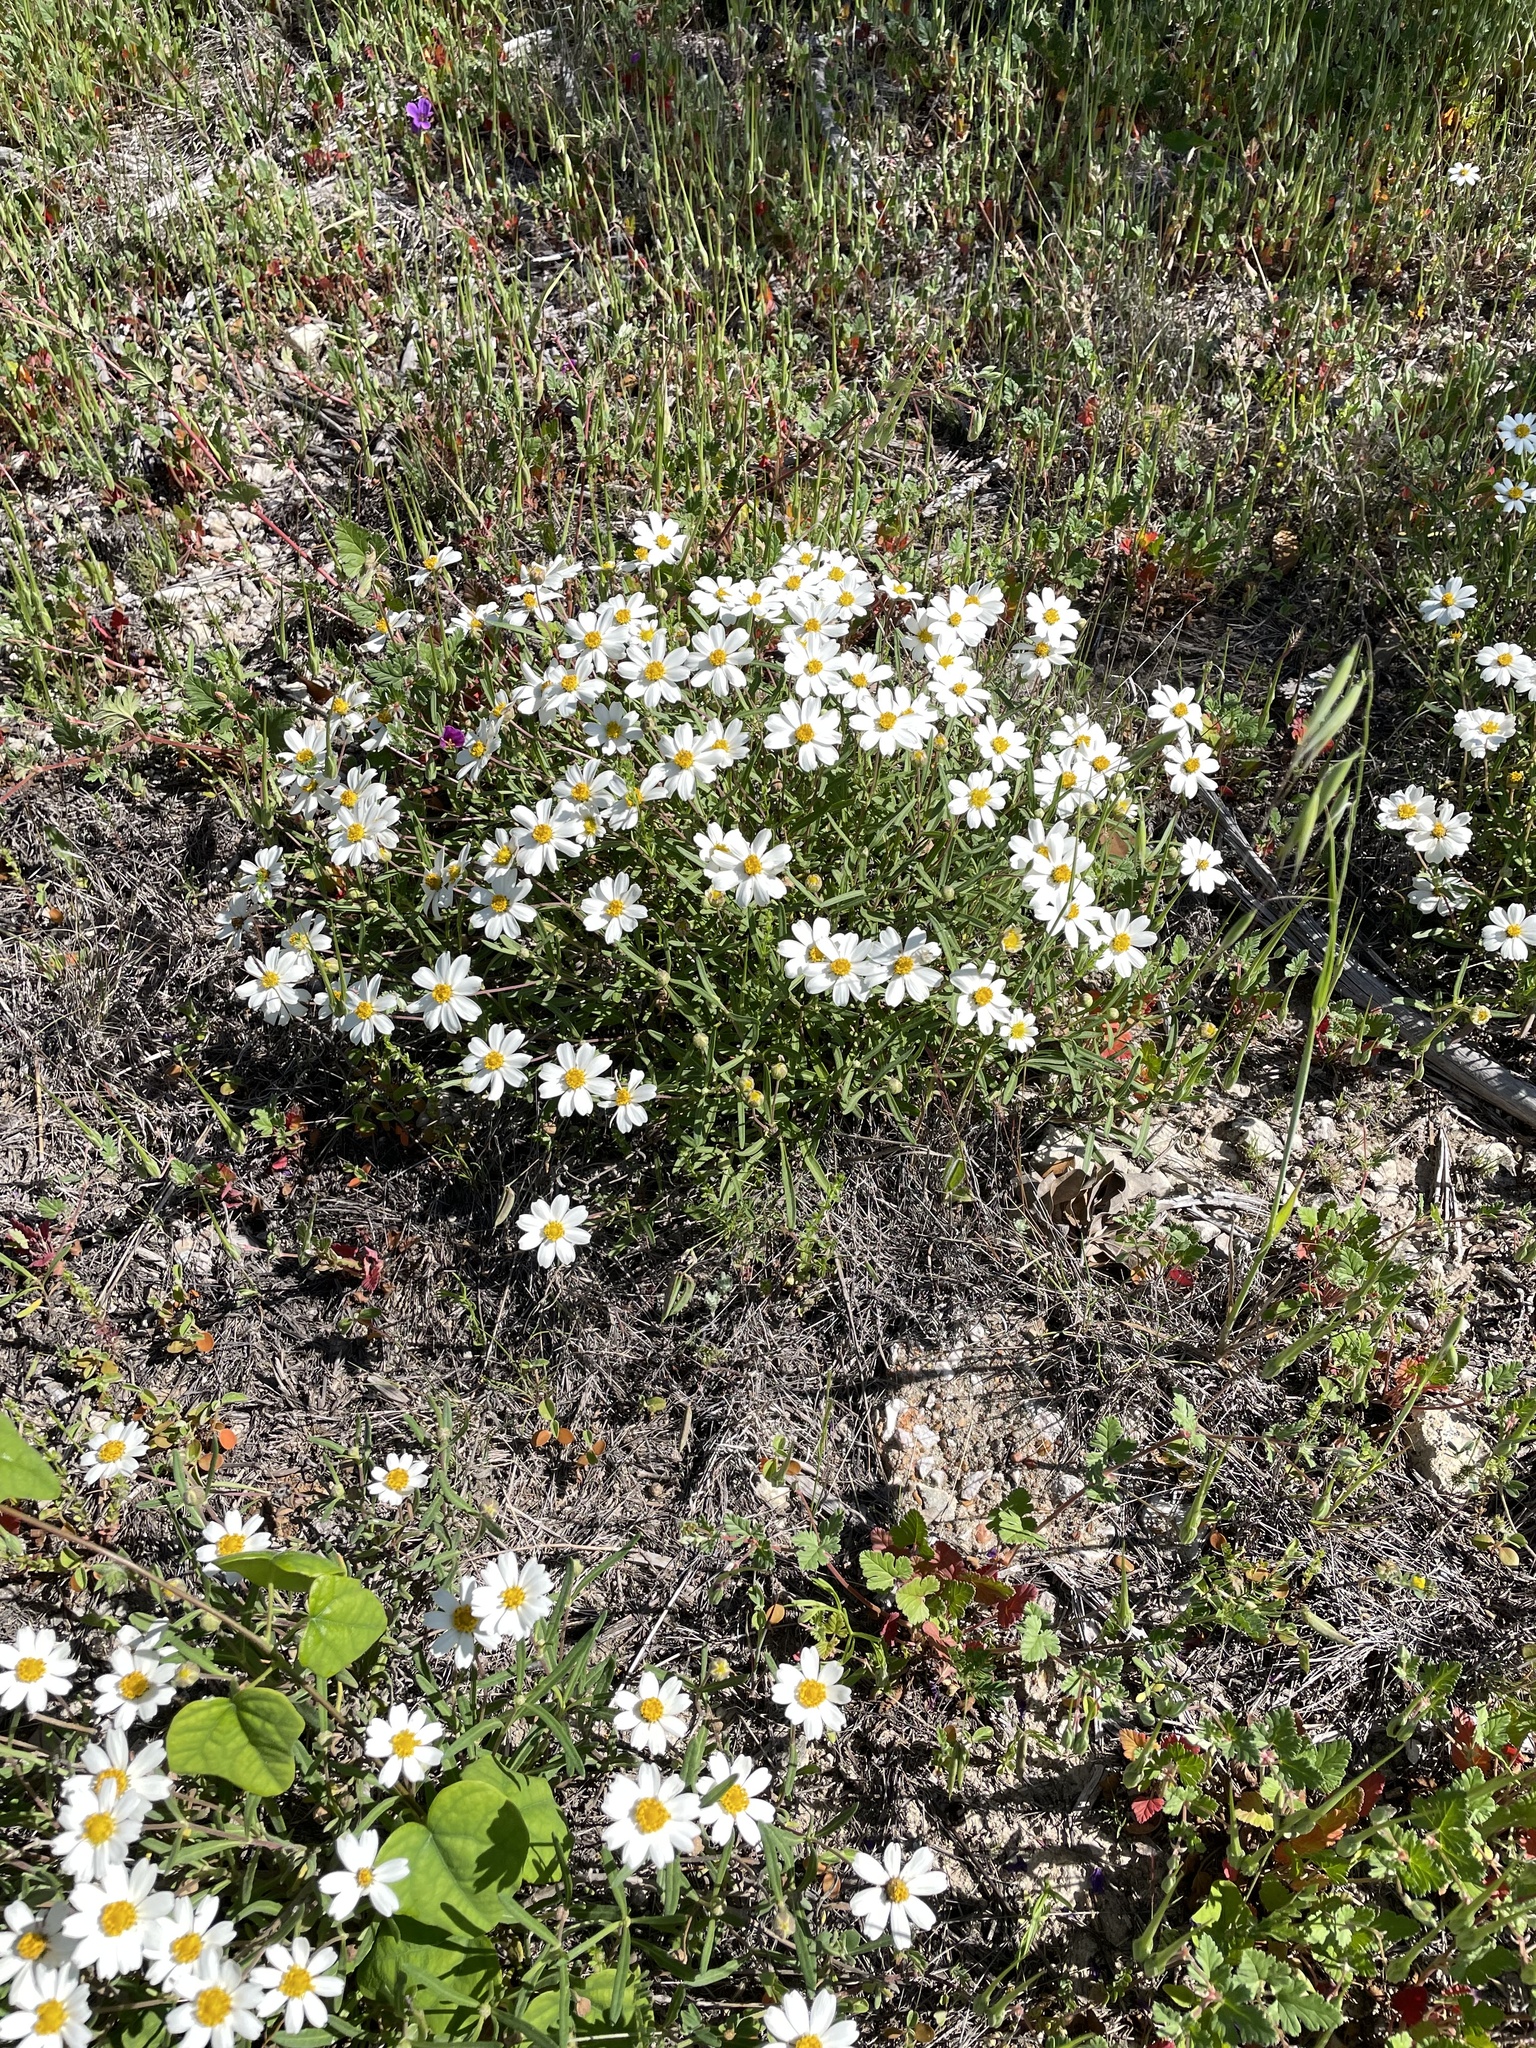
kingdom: Plantae
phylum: Tracheophyta
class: Magnoliopsida
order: Asterales
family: Asteraceae
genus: Melampodium
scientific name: Melampodium leucanthum
